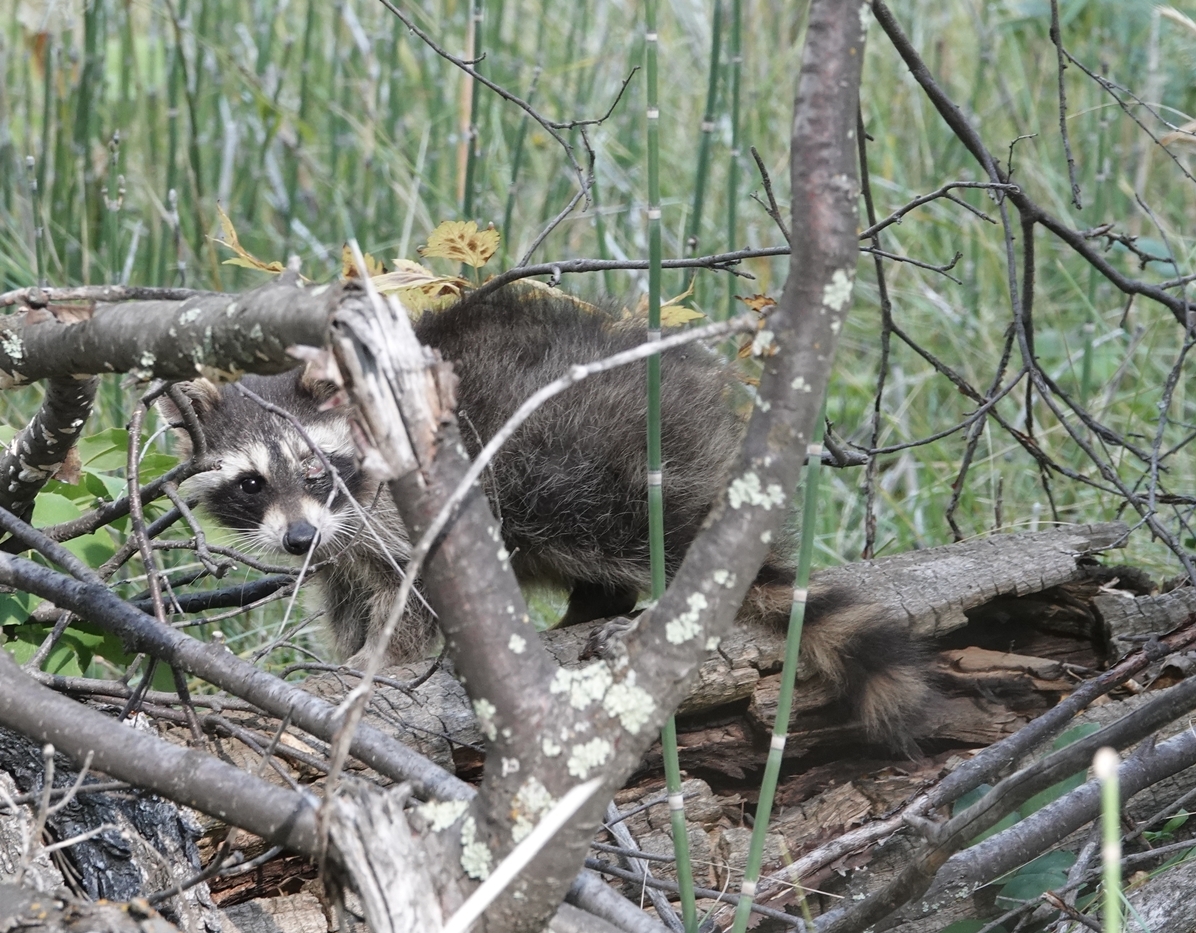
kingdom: Animalia
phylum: Chordata
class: Mammalia
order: Carnivora
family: Procyonidae
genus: Procyon
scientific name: Procyon lotor
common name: Raccoon
